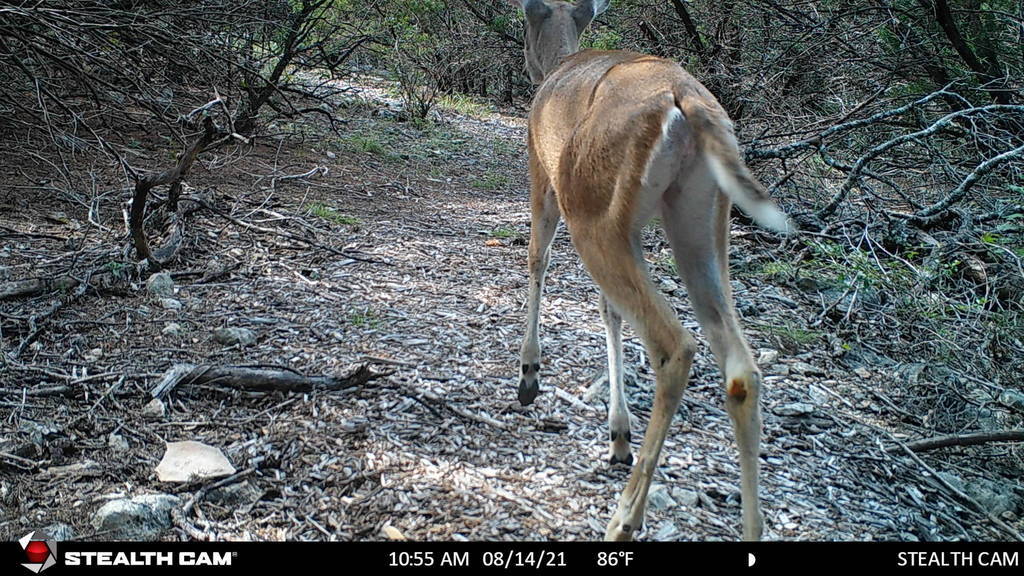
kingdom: Animalia
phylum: Chordata
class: Mammalia
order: Artiodactyla
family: Cervidae
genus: Odocoileus
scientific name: Odocoileus virginianus
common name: White-tailed deer
